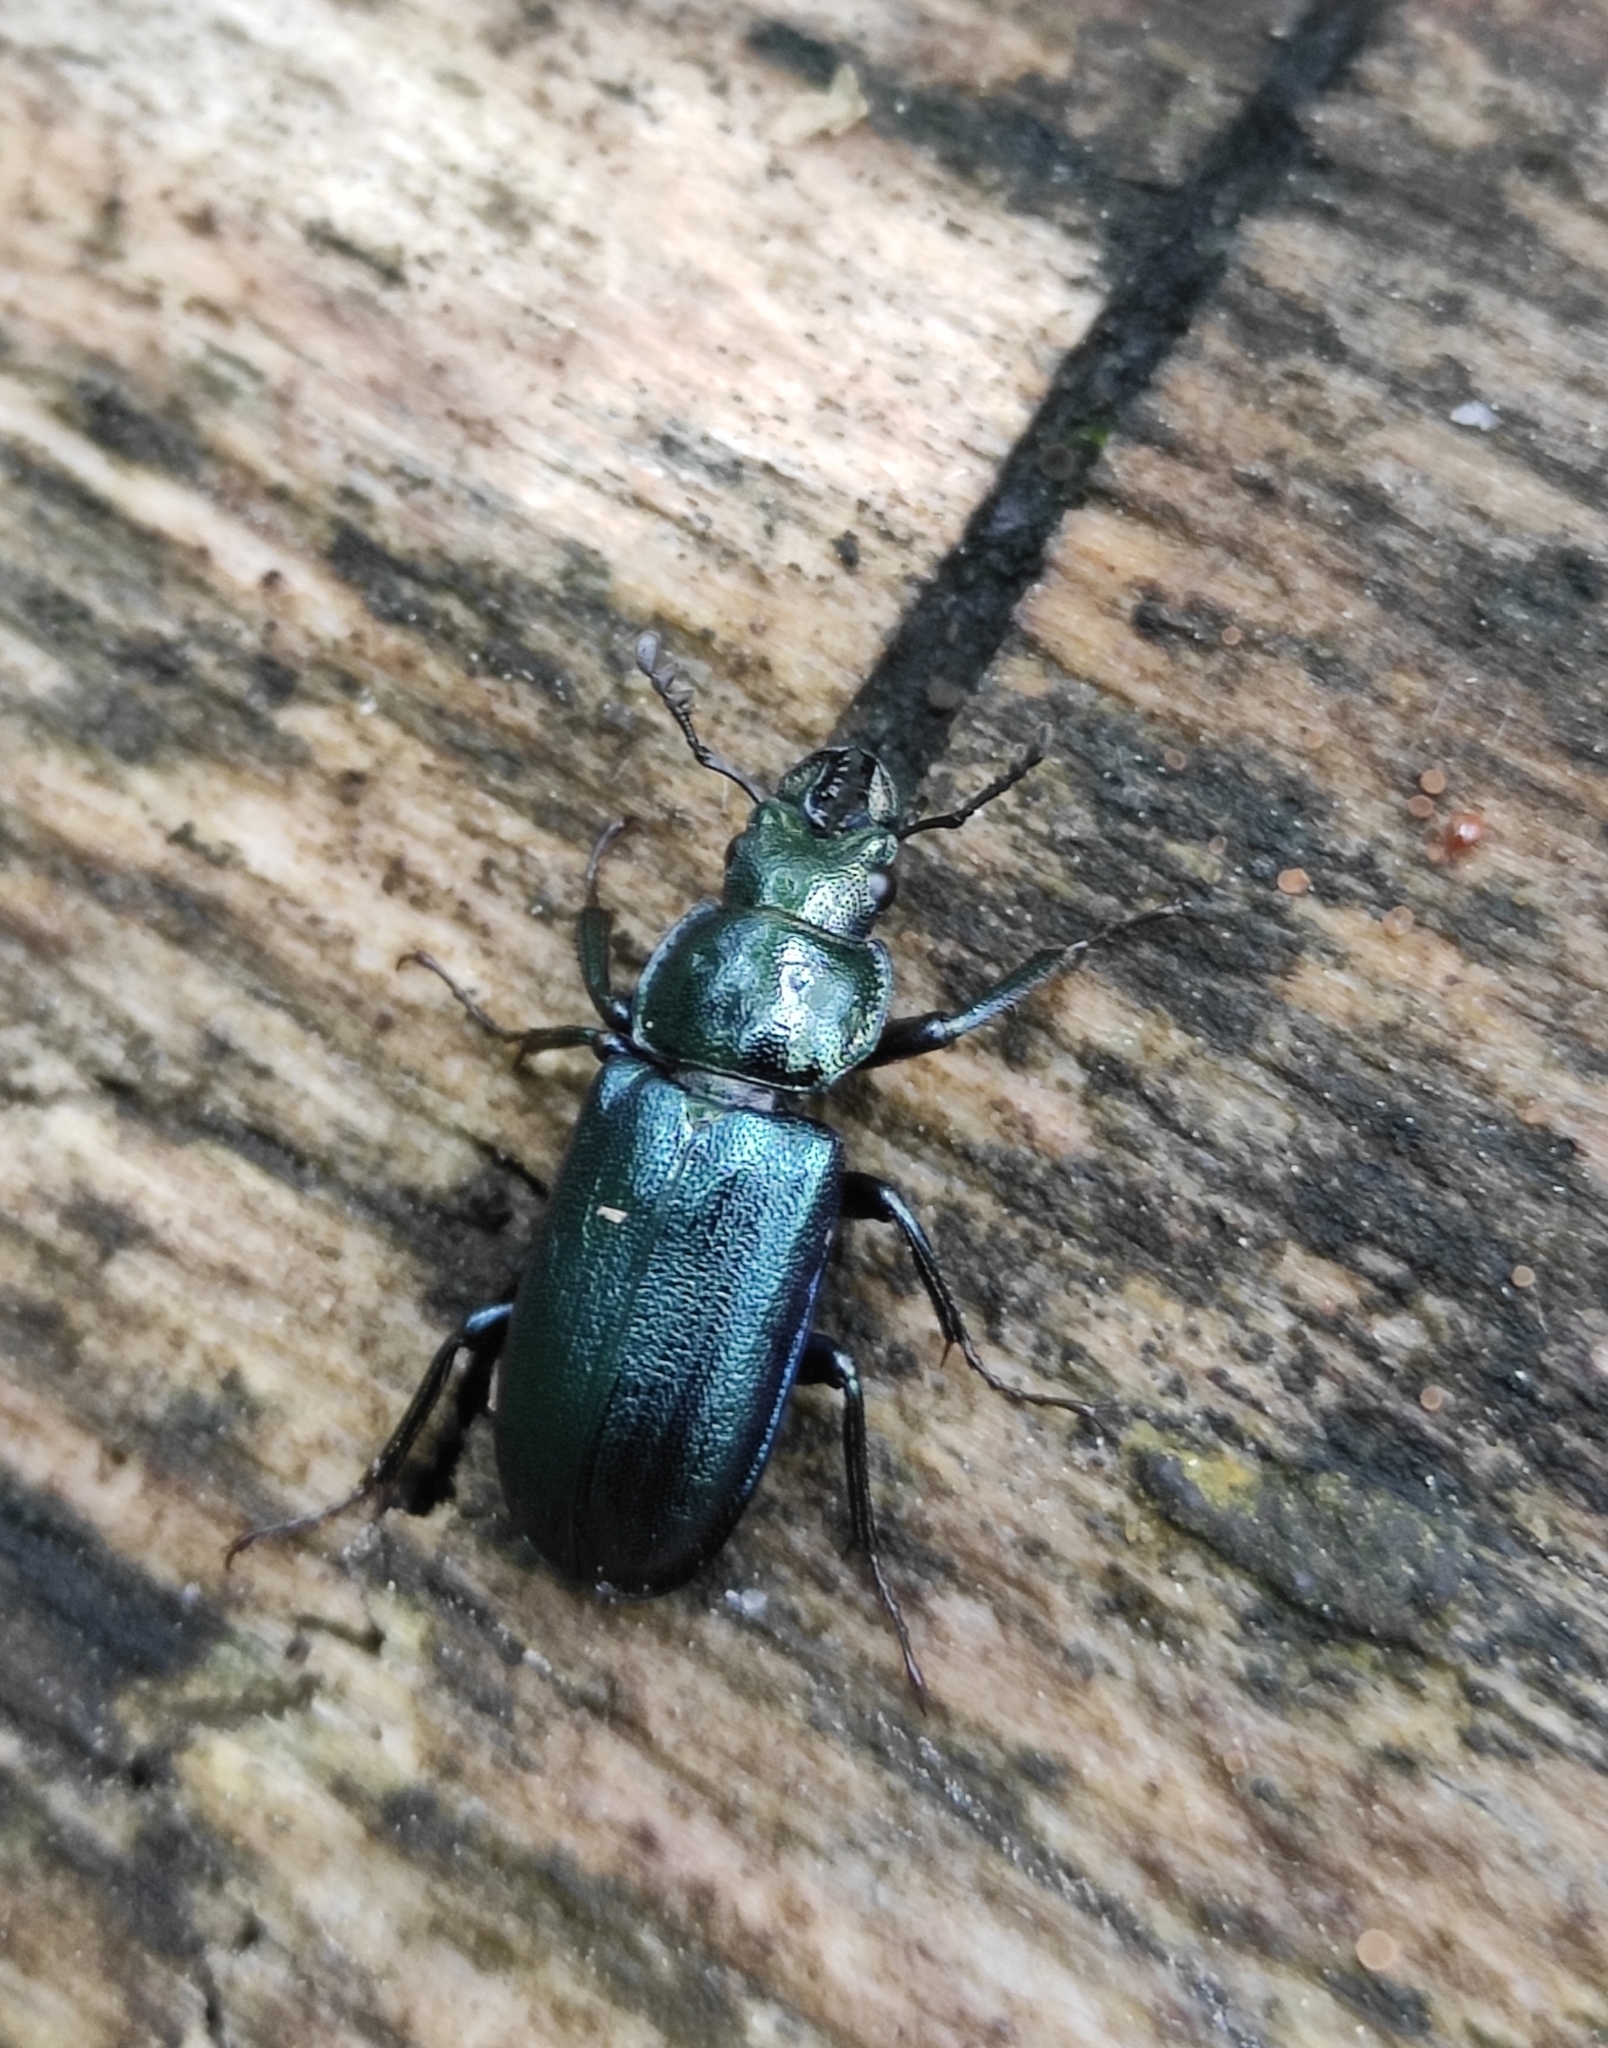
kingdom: Animalia
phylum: Arthropoda
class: Insecta
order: Coleoptera
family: Lucanidae
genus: Platycerus
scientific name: Platycerus caprea
